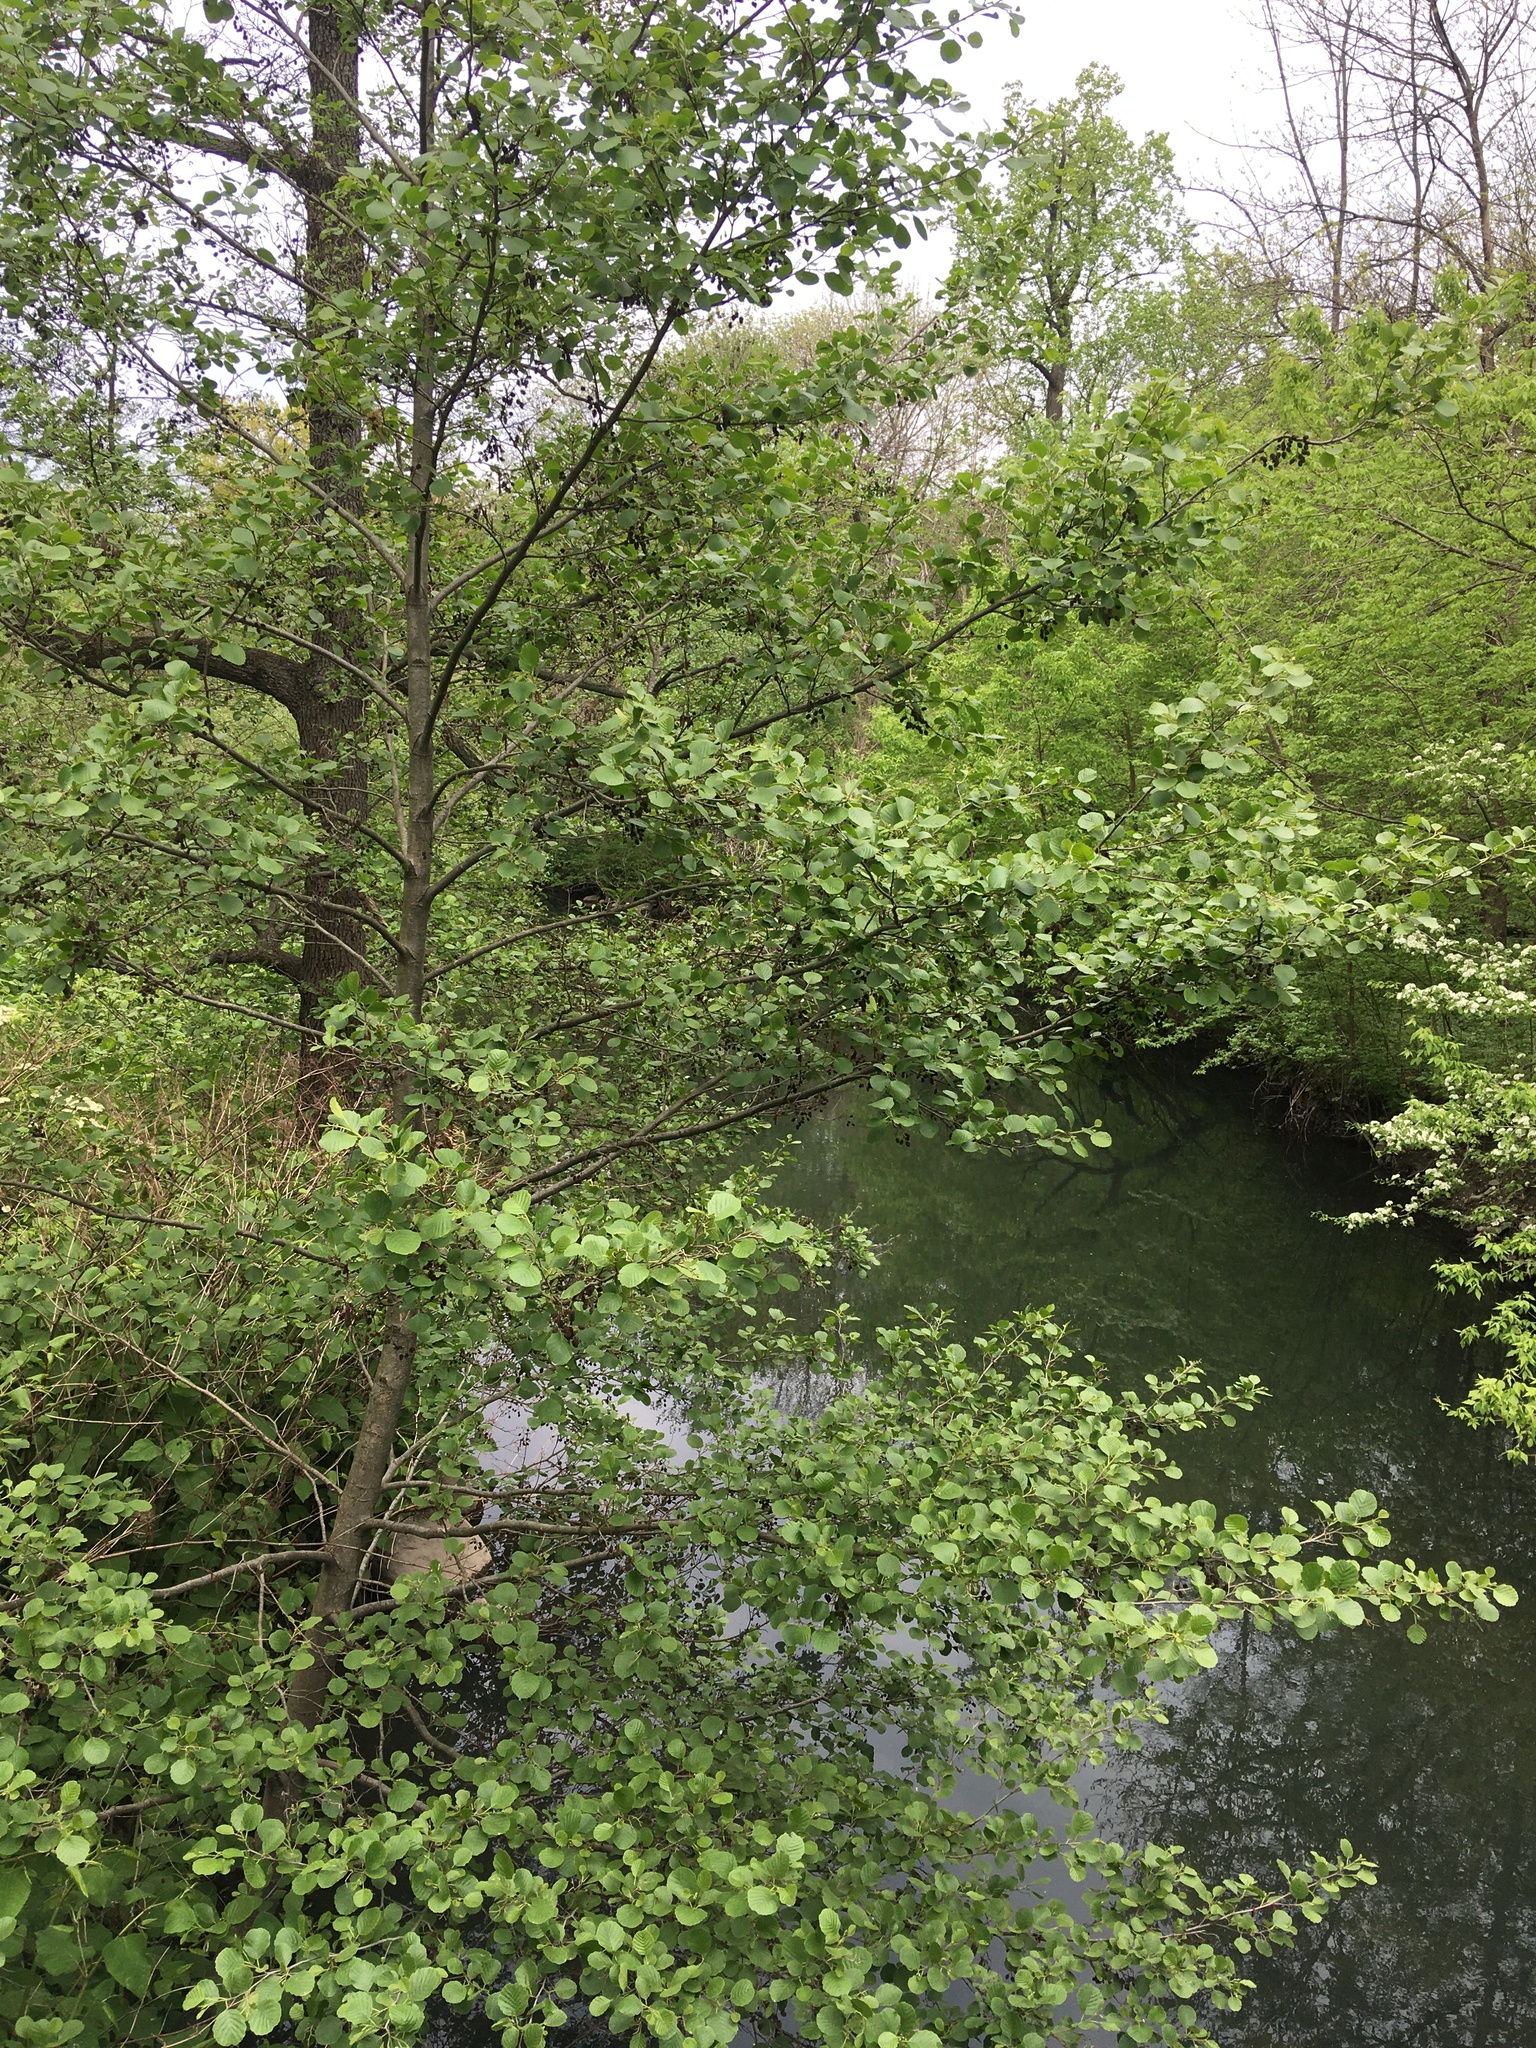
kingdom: Plantae
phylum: Tracheophyta
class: Magnoliopsida
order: Fagales
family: Betulaceae
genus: Alnus
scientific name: Alnus glutinosa
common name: Black alder
